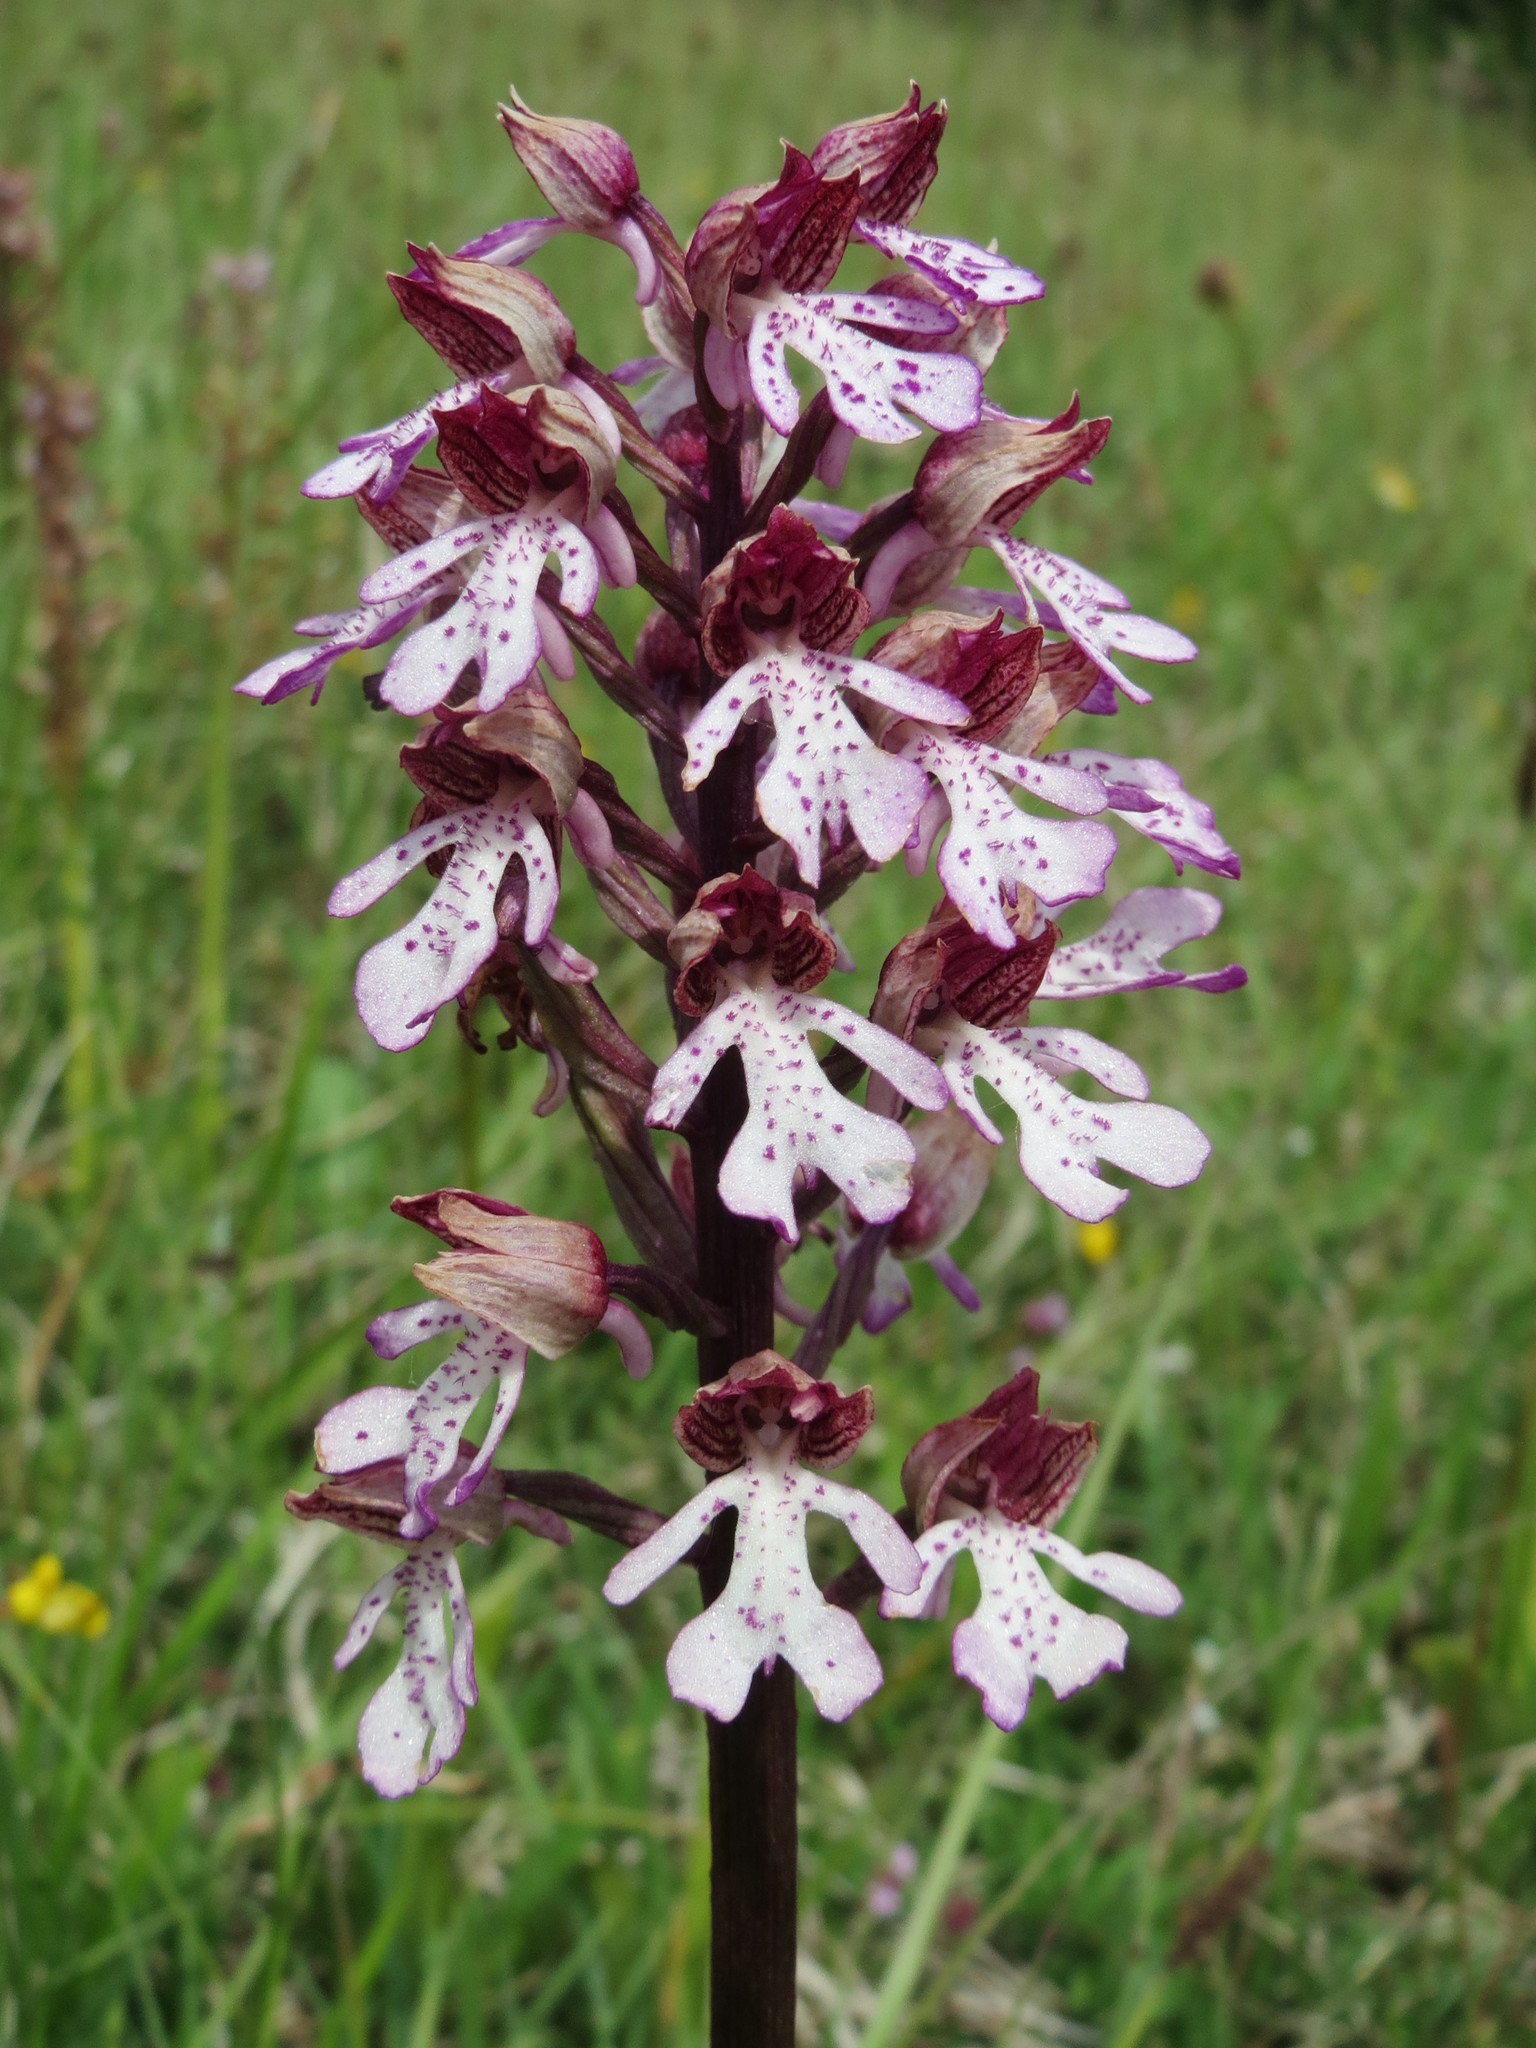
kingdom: Plantae
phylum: Tracheophyta
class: Liliopsida
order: Asparagales
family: Orchidaceae
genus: Orchis
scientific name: Orchis purpurea
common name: Lady orchid
